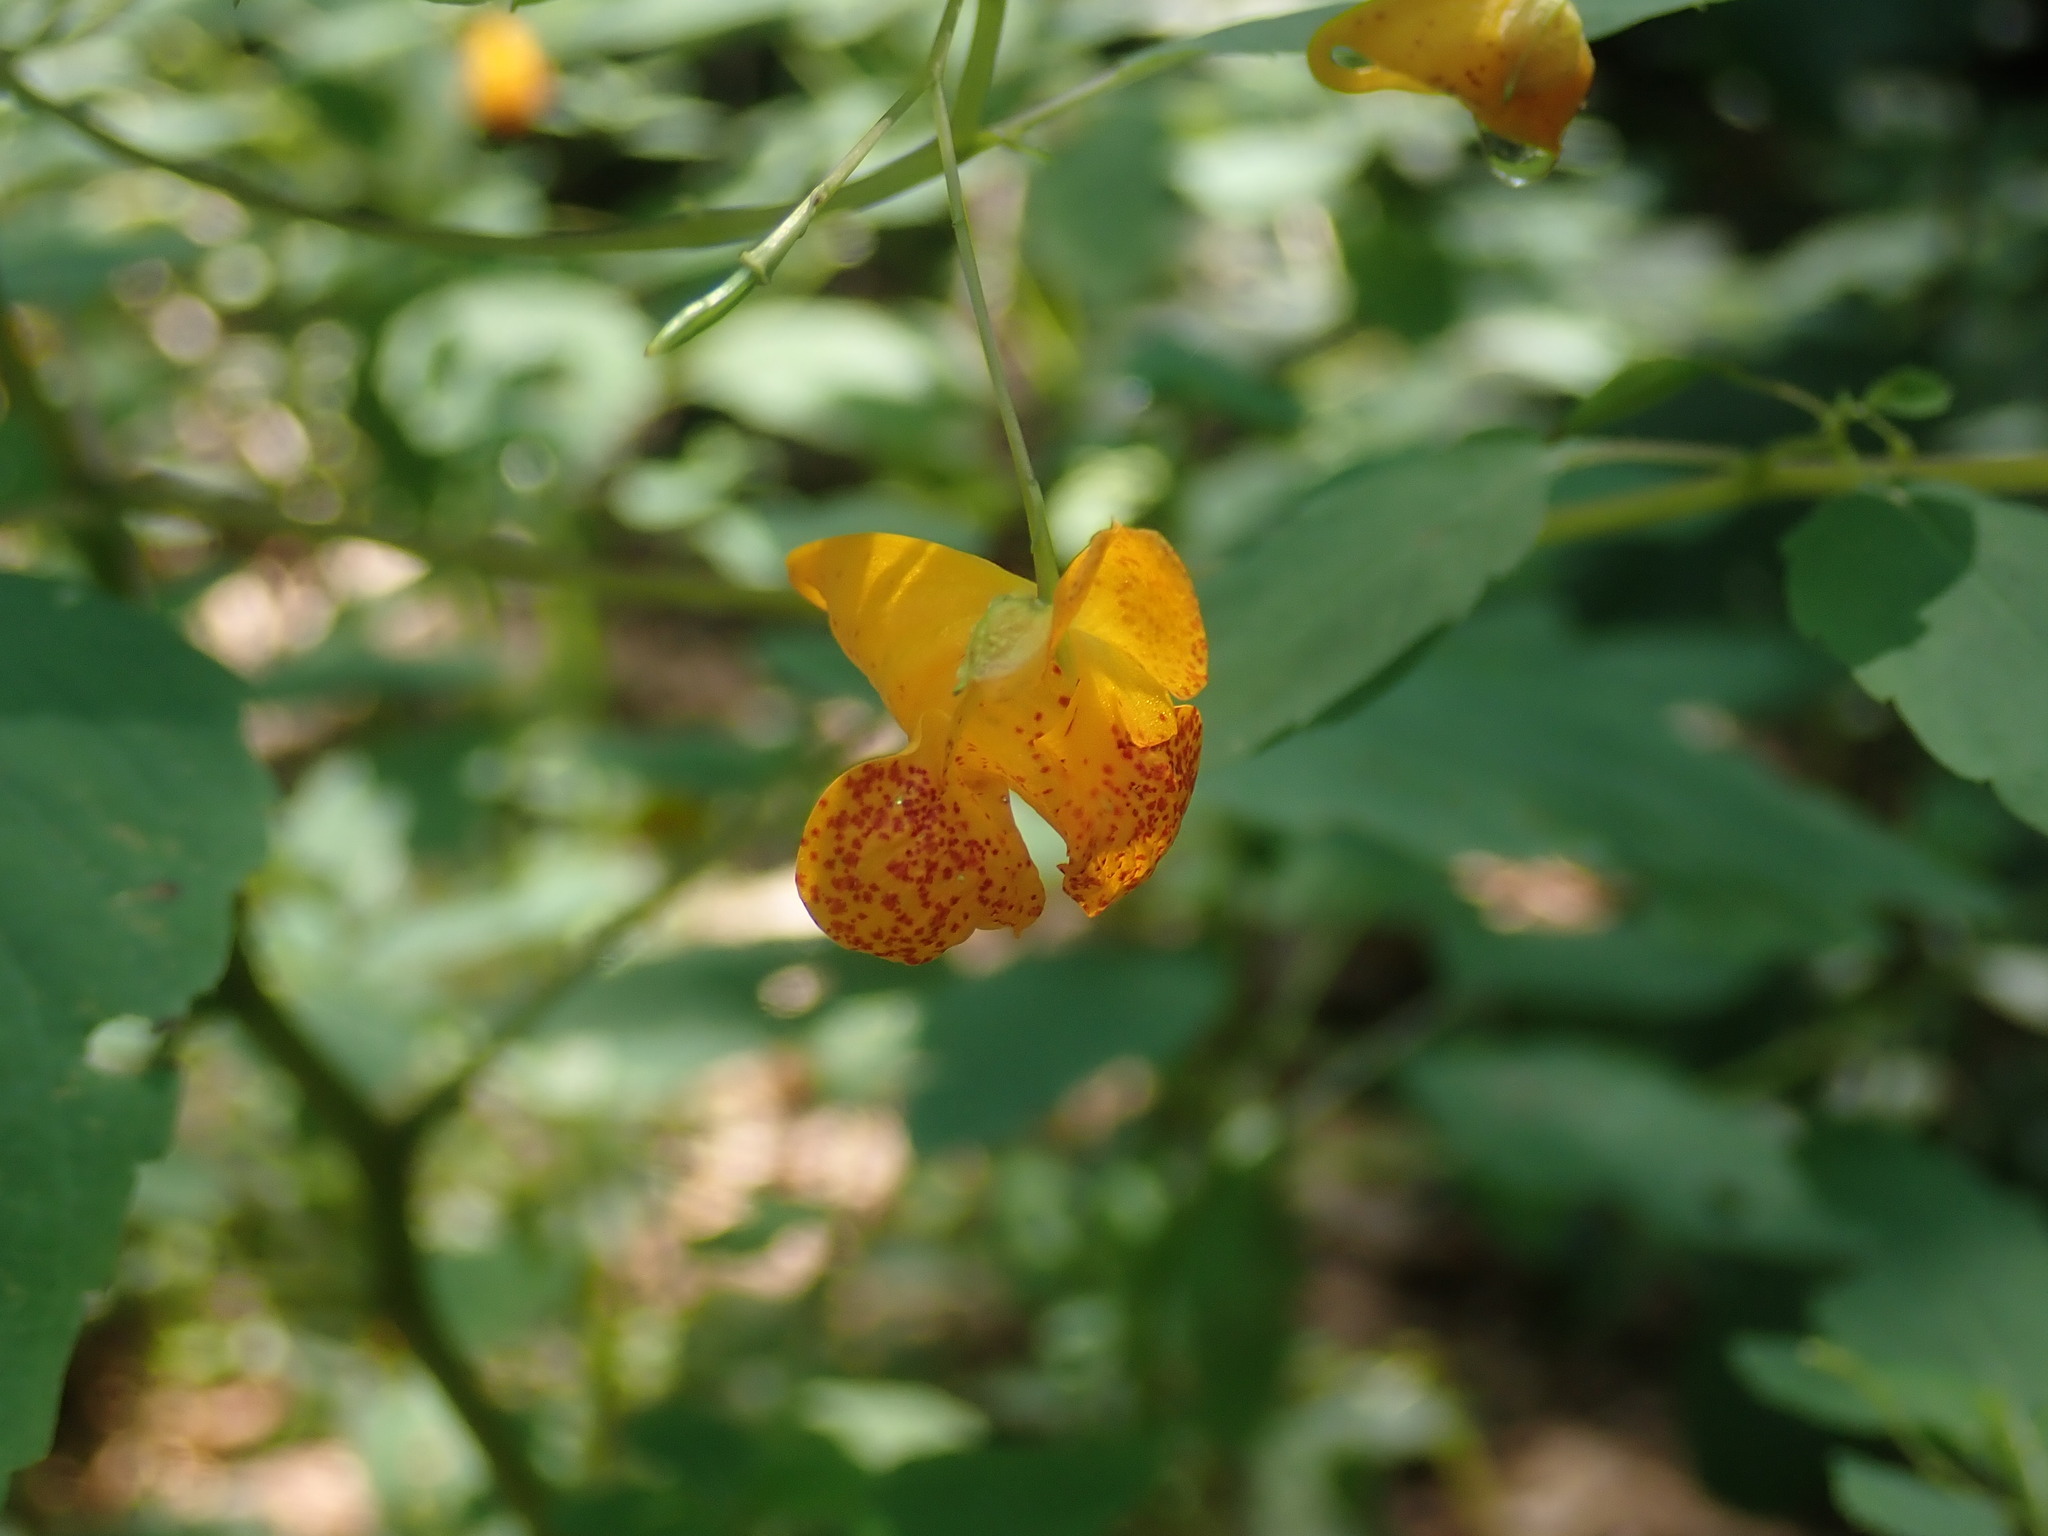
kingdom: Plantae
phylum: Tracheophyta
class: Magnoliopsida
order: Ericales
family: Balsaminaceae
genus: Impatiens
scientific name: Impatiens capensis
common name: Orange balsam
